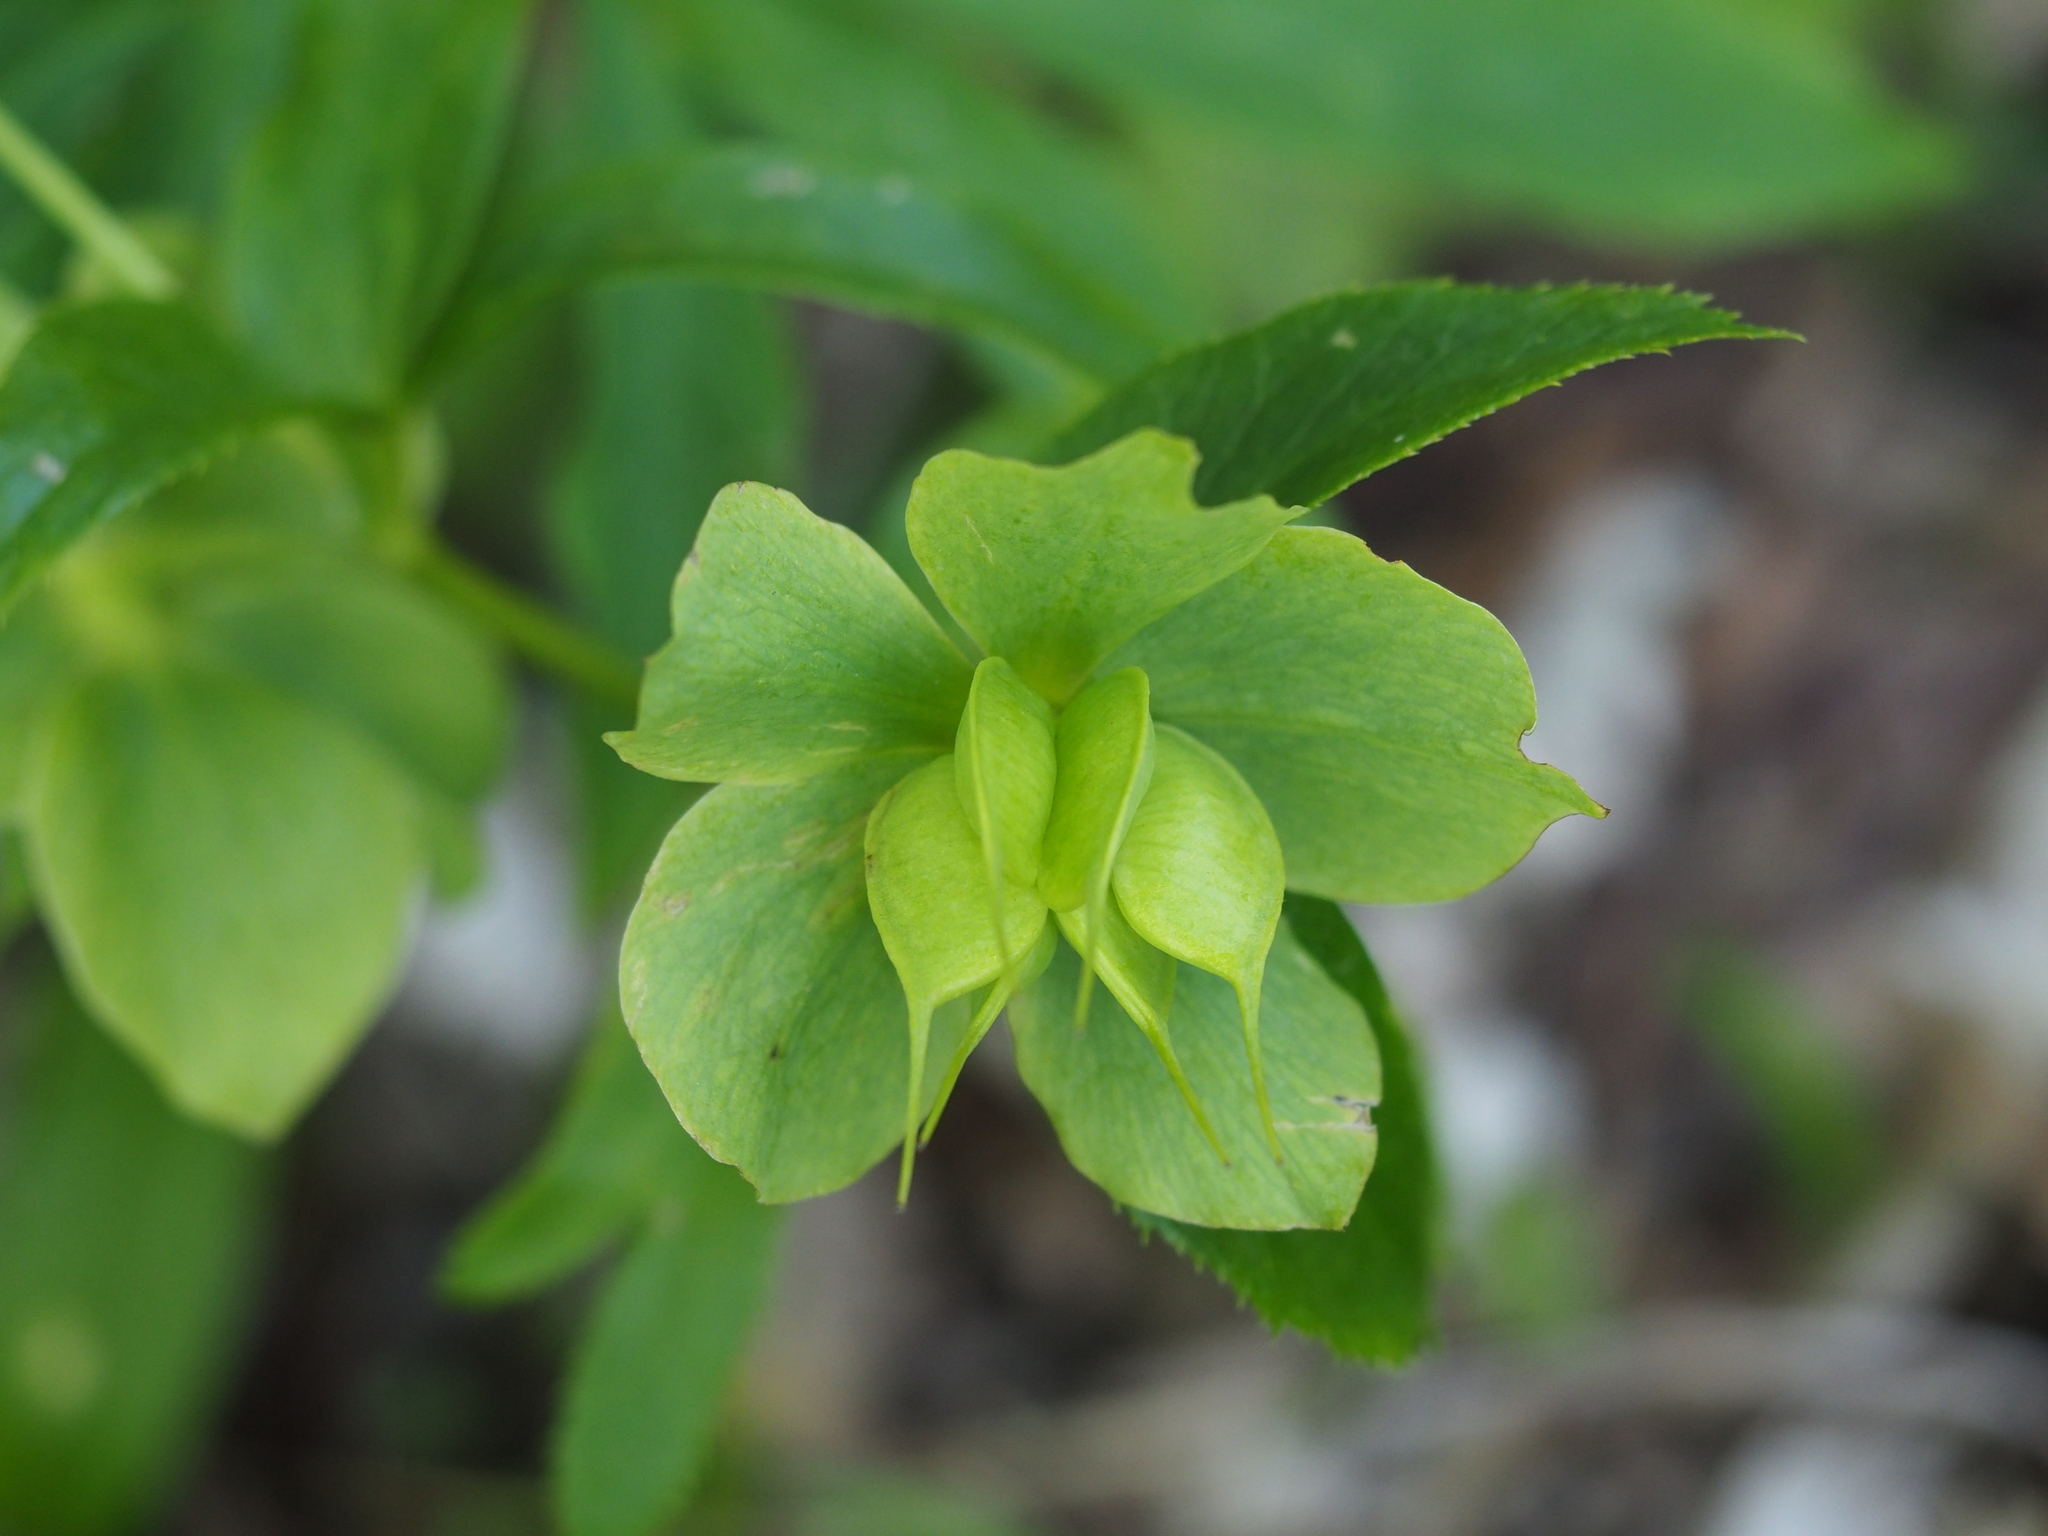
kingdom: Plantae
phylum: Tracheophyta
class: Magnoliopsida
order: Ranunculales
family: Ranunculaceae
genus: Helleborus
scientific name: Helleborus viridis
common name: Green hellebore
